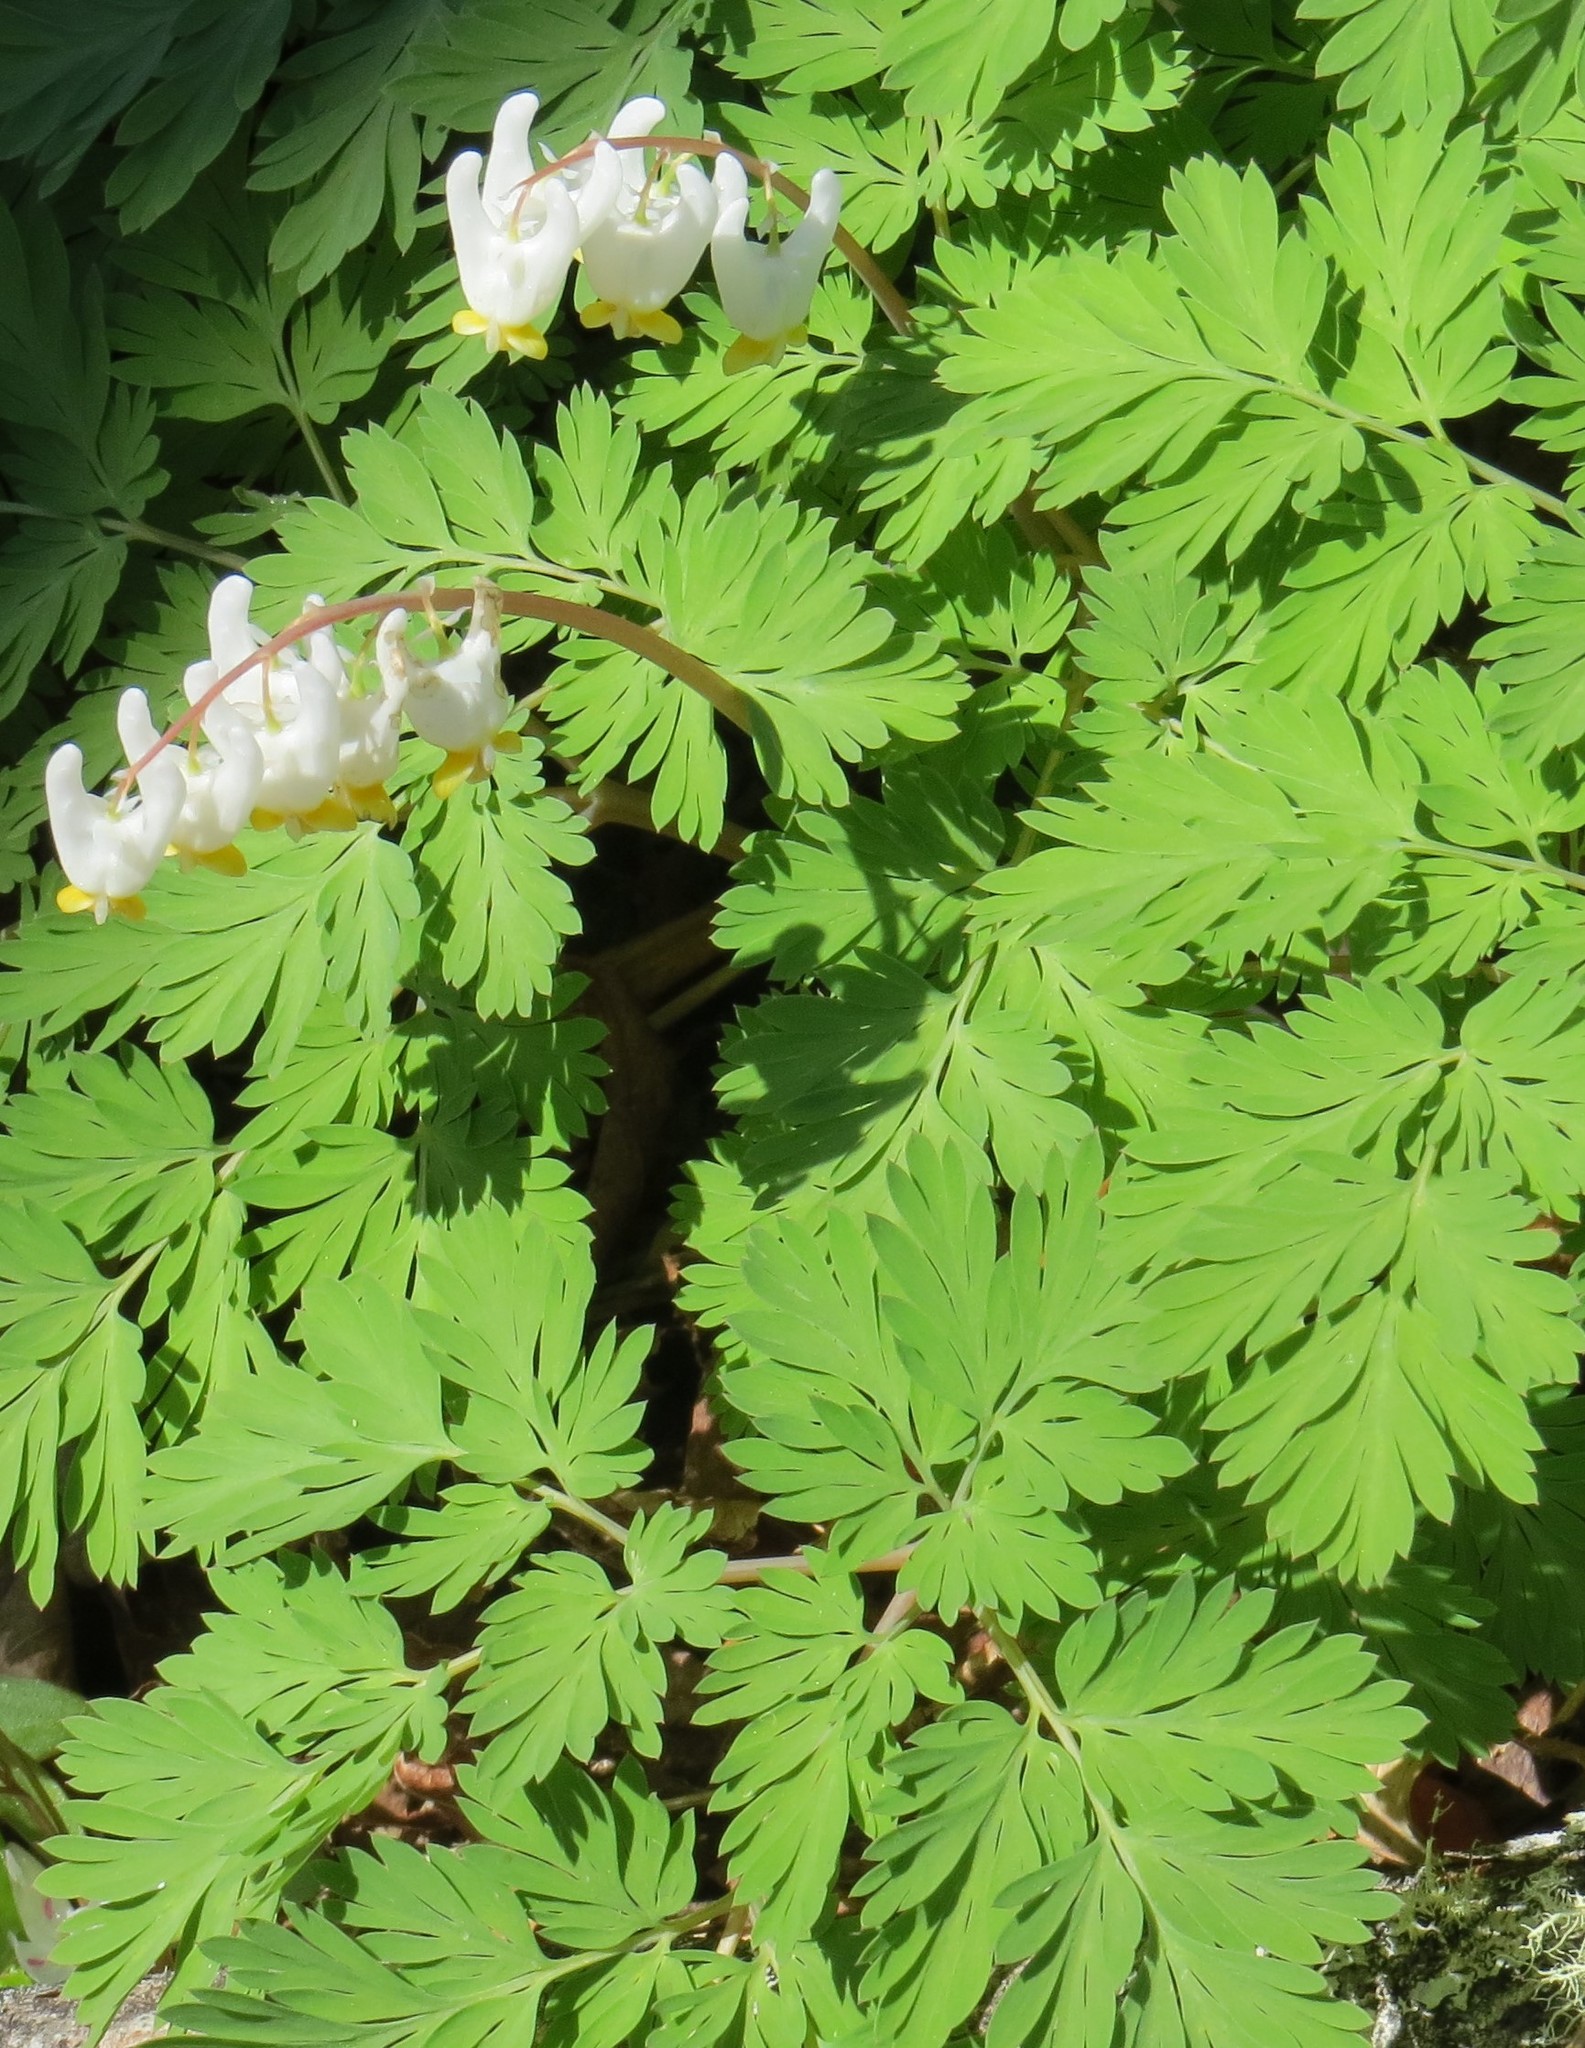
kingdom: Plantae
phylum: Tracheophyta
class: Magnoliopsida
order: Ranunculales
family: Papaveraceae
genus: Dicentra
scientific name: Dicentra cucullaria
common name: Dutchman's breeches
